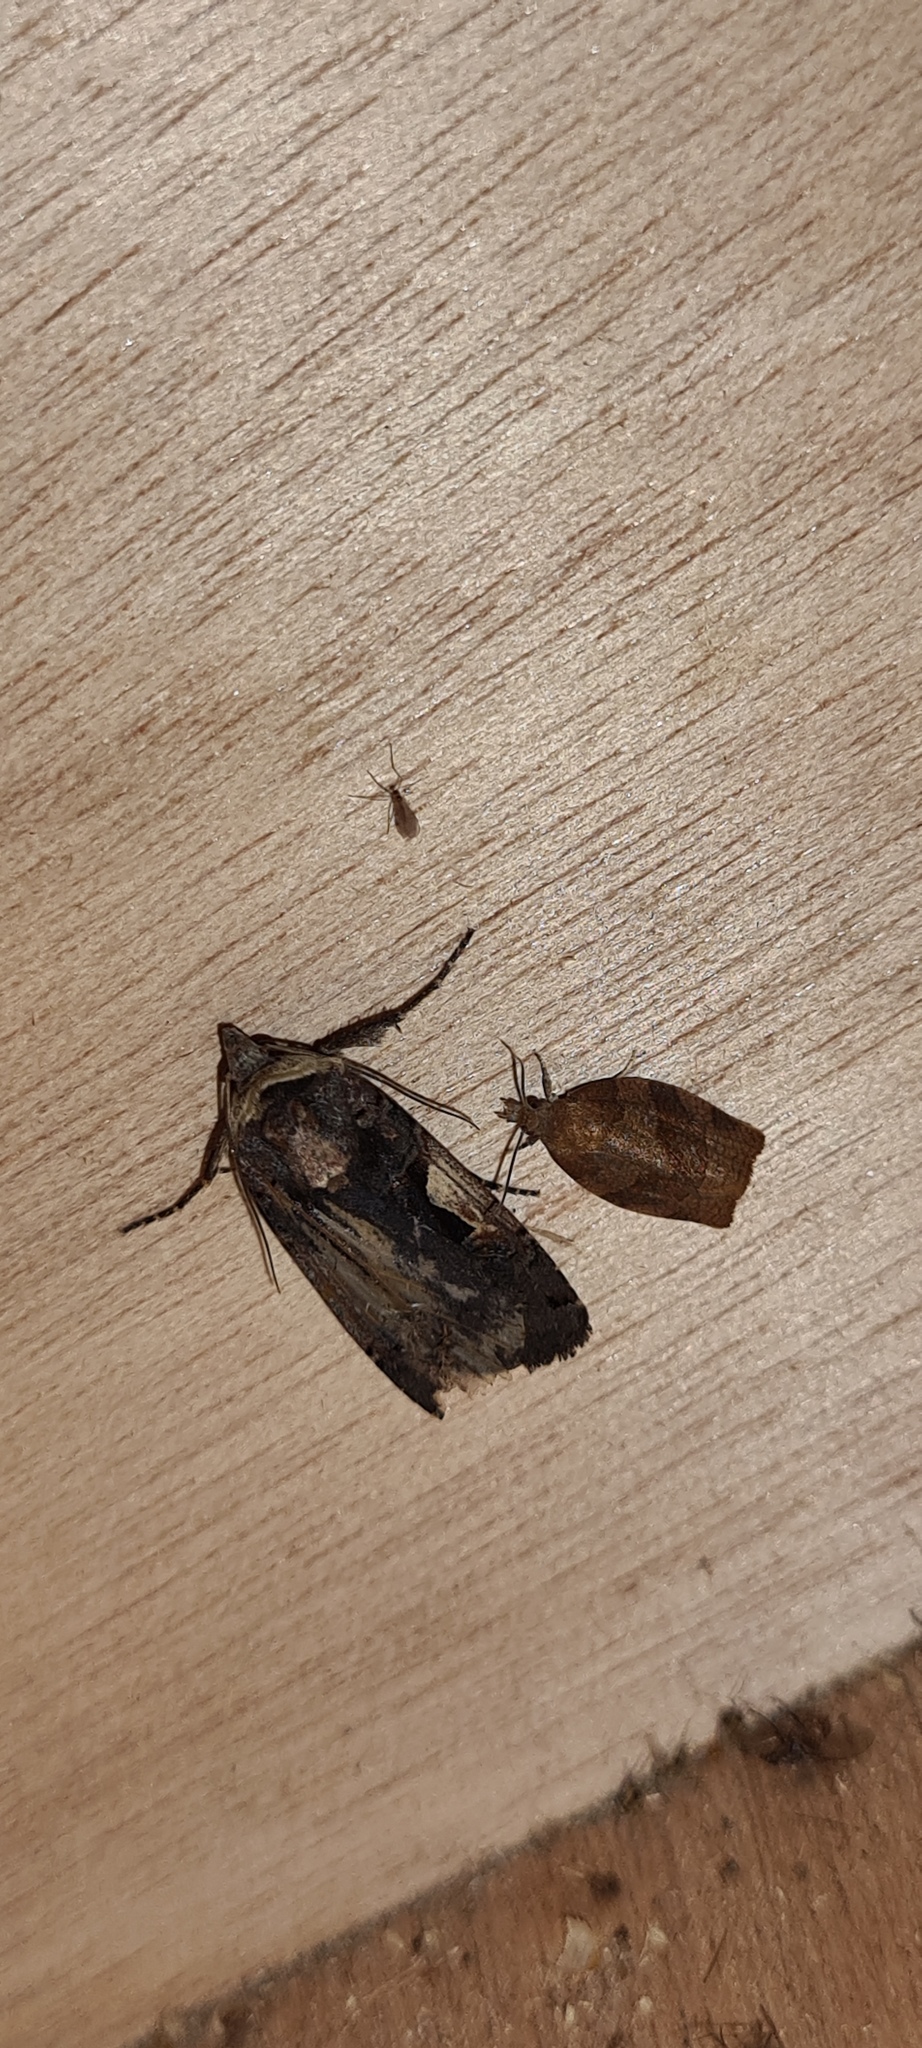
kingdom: Animalia
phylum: Arthropoda
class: Insecta
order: Lepidoptera
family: Noctuidae
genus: Xestia
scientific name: Xestia c-nigrum
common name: Setaceous hebrew character
